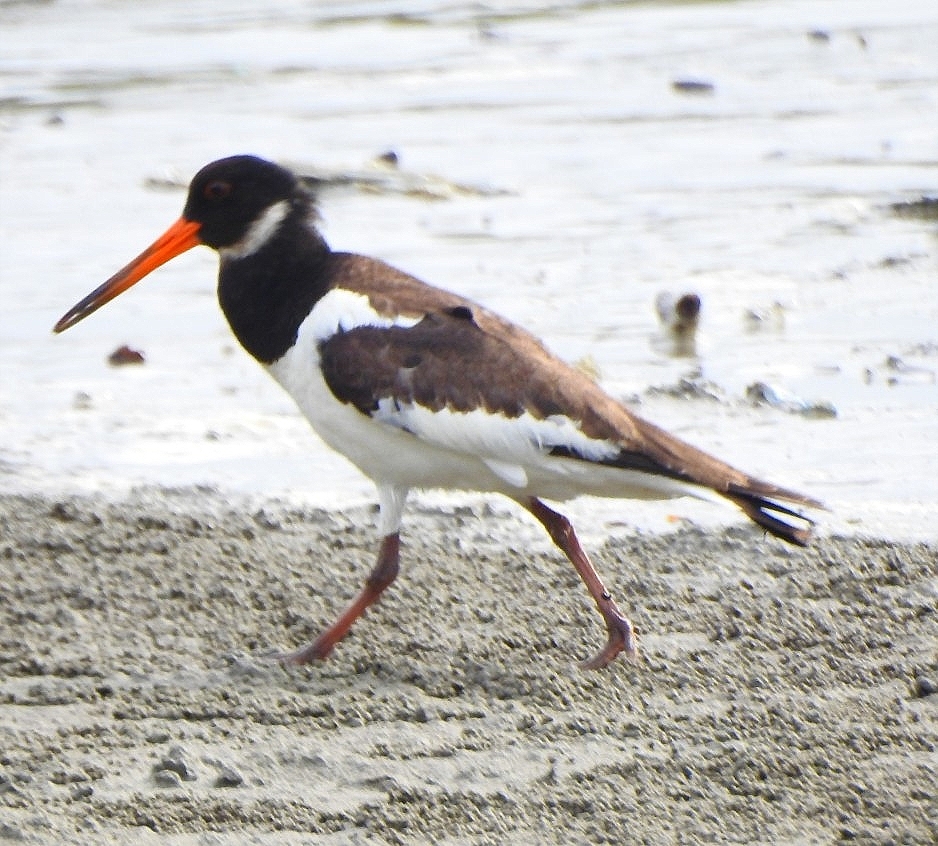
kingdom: Animalia
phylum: Chordata
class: Aves
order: Charadriiformes
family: Haematopodidae
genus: Haematopus
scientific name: Haematopus ostralegus
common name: Eurasian oystercatcher
